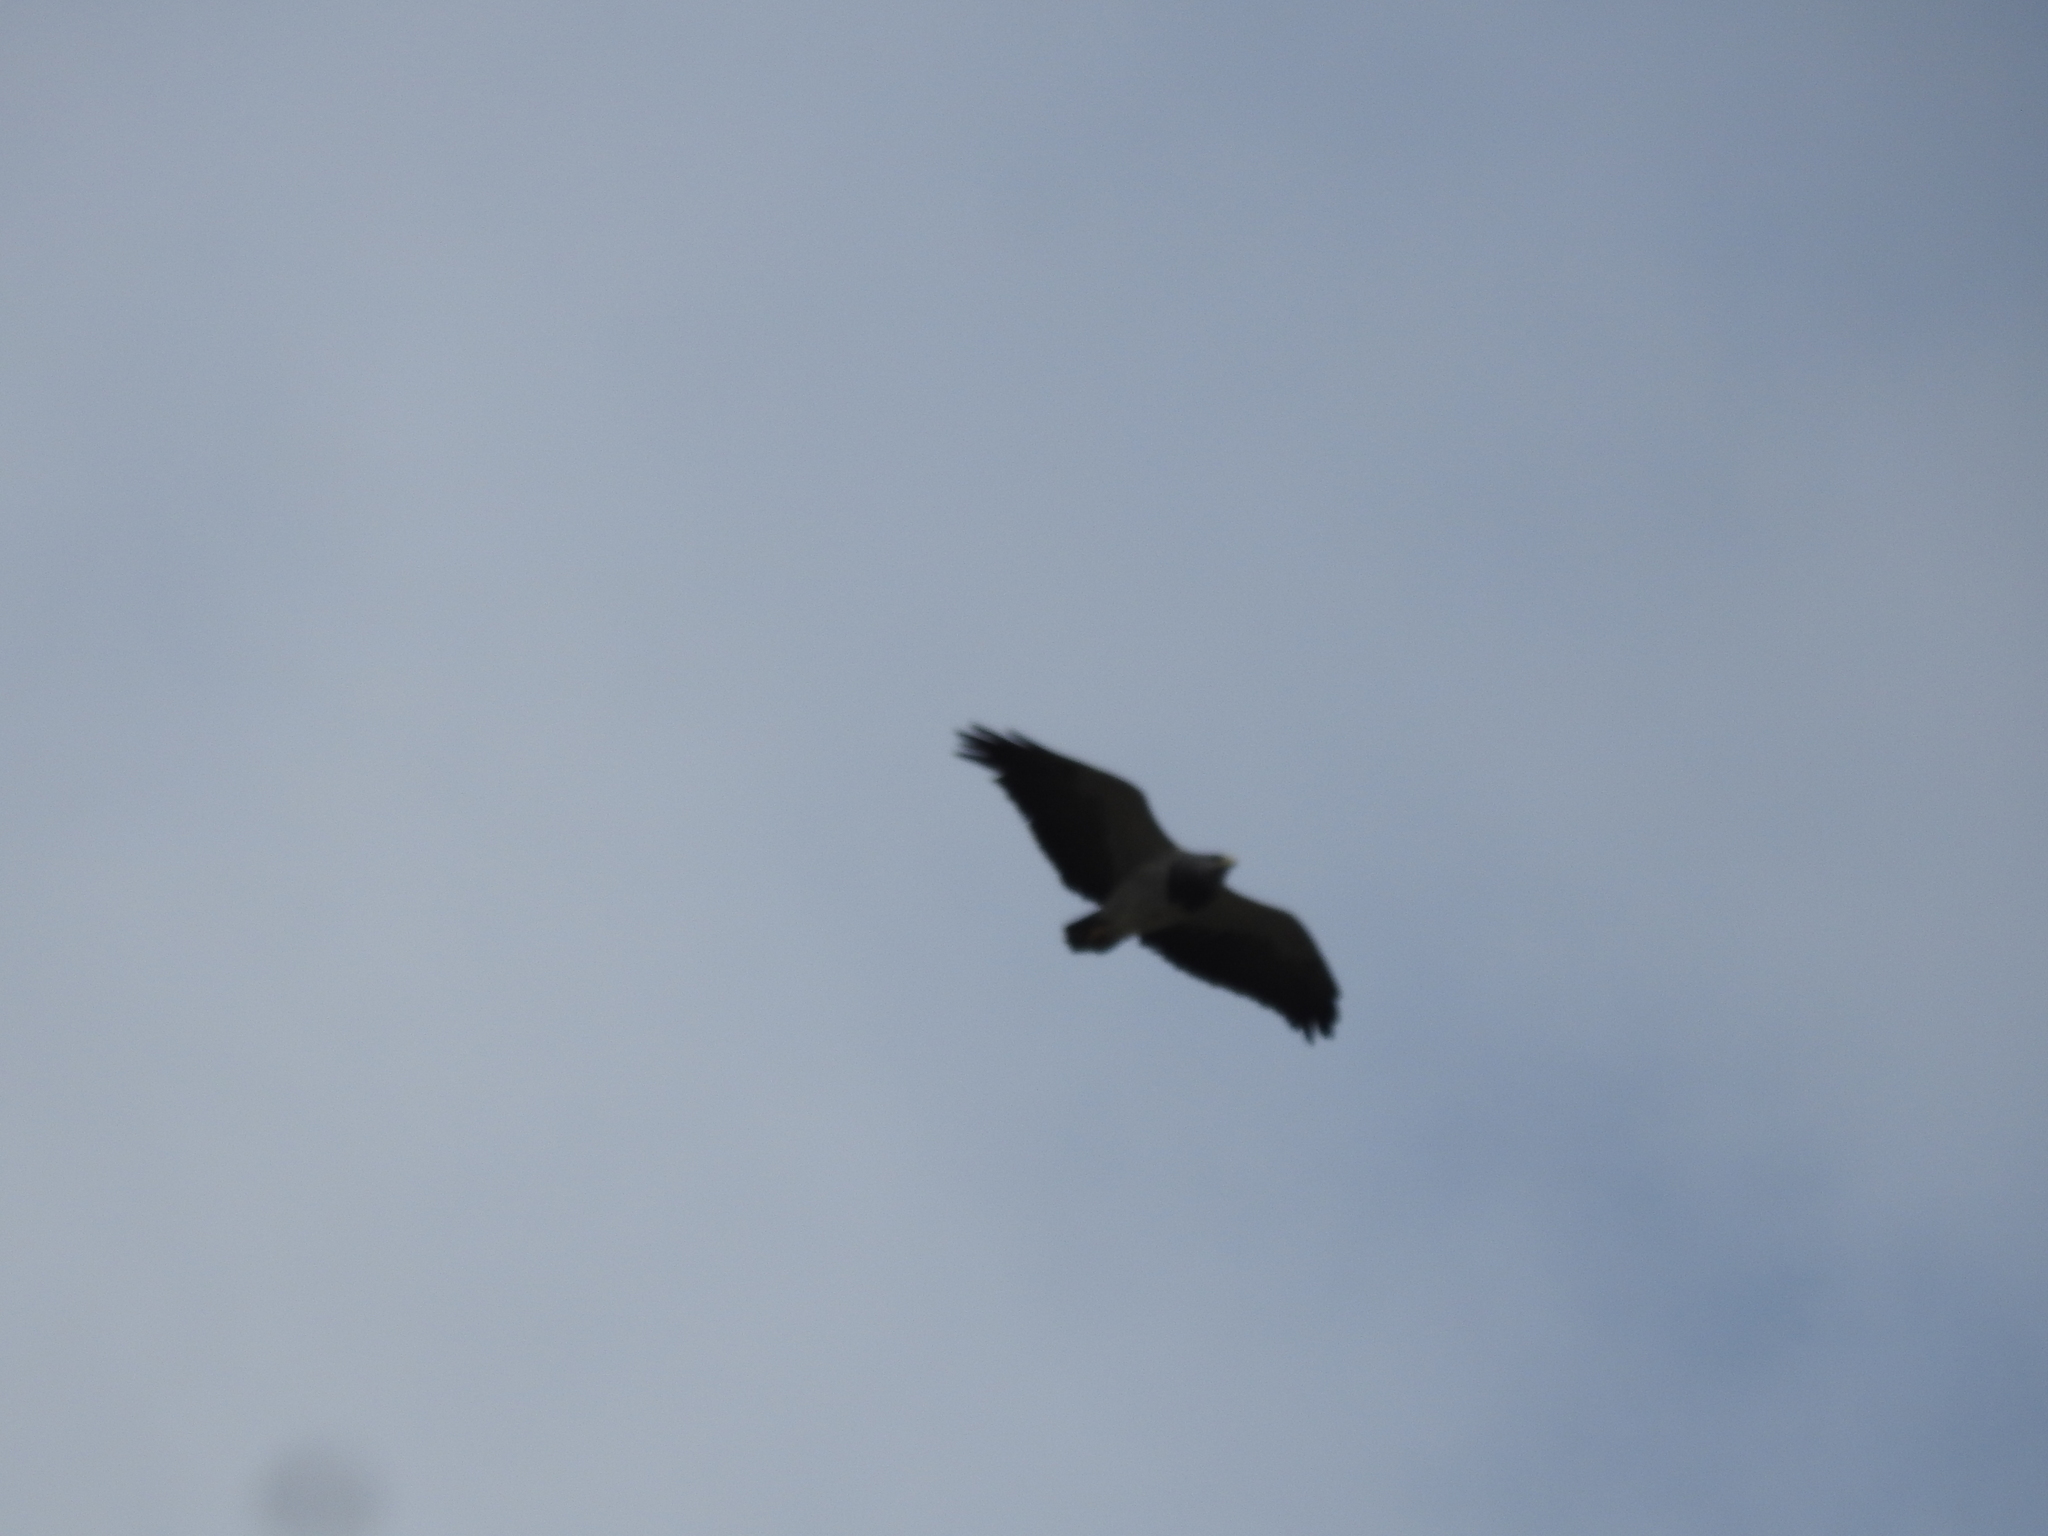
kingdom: Animalia
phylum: Chordata
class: Aves
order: Accipitriformes
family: Accipitridae
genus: Geranoaetus
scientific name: Geranoaetus melanoleucus
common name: Black-chested buzzard-eagle
